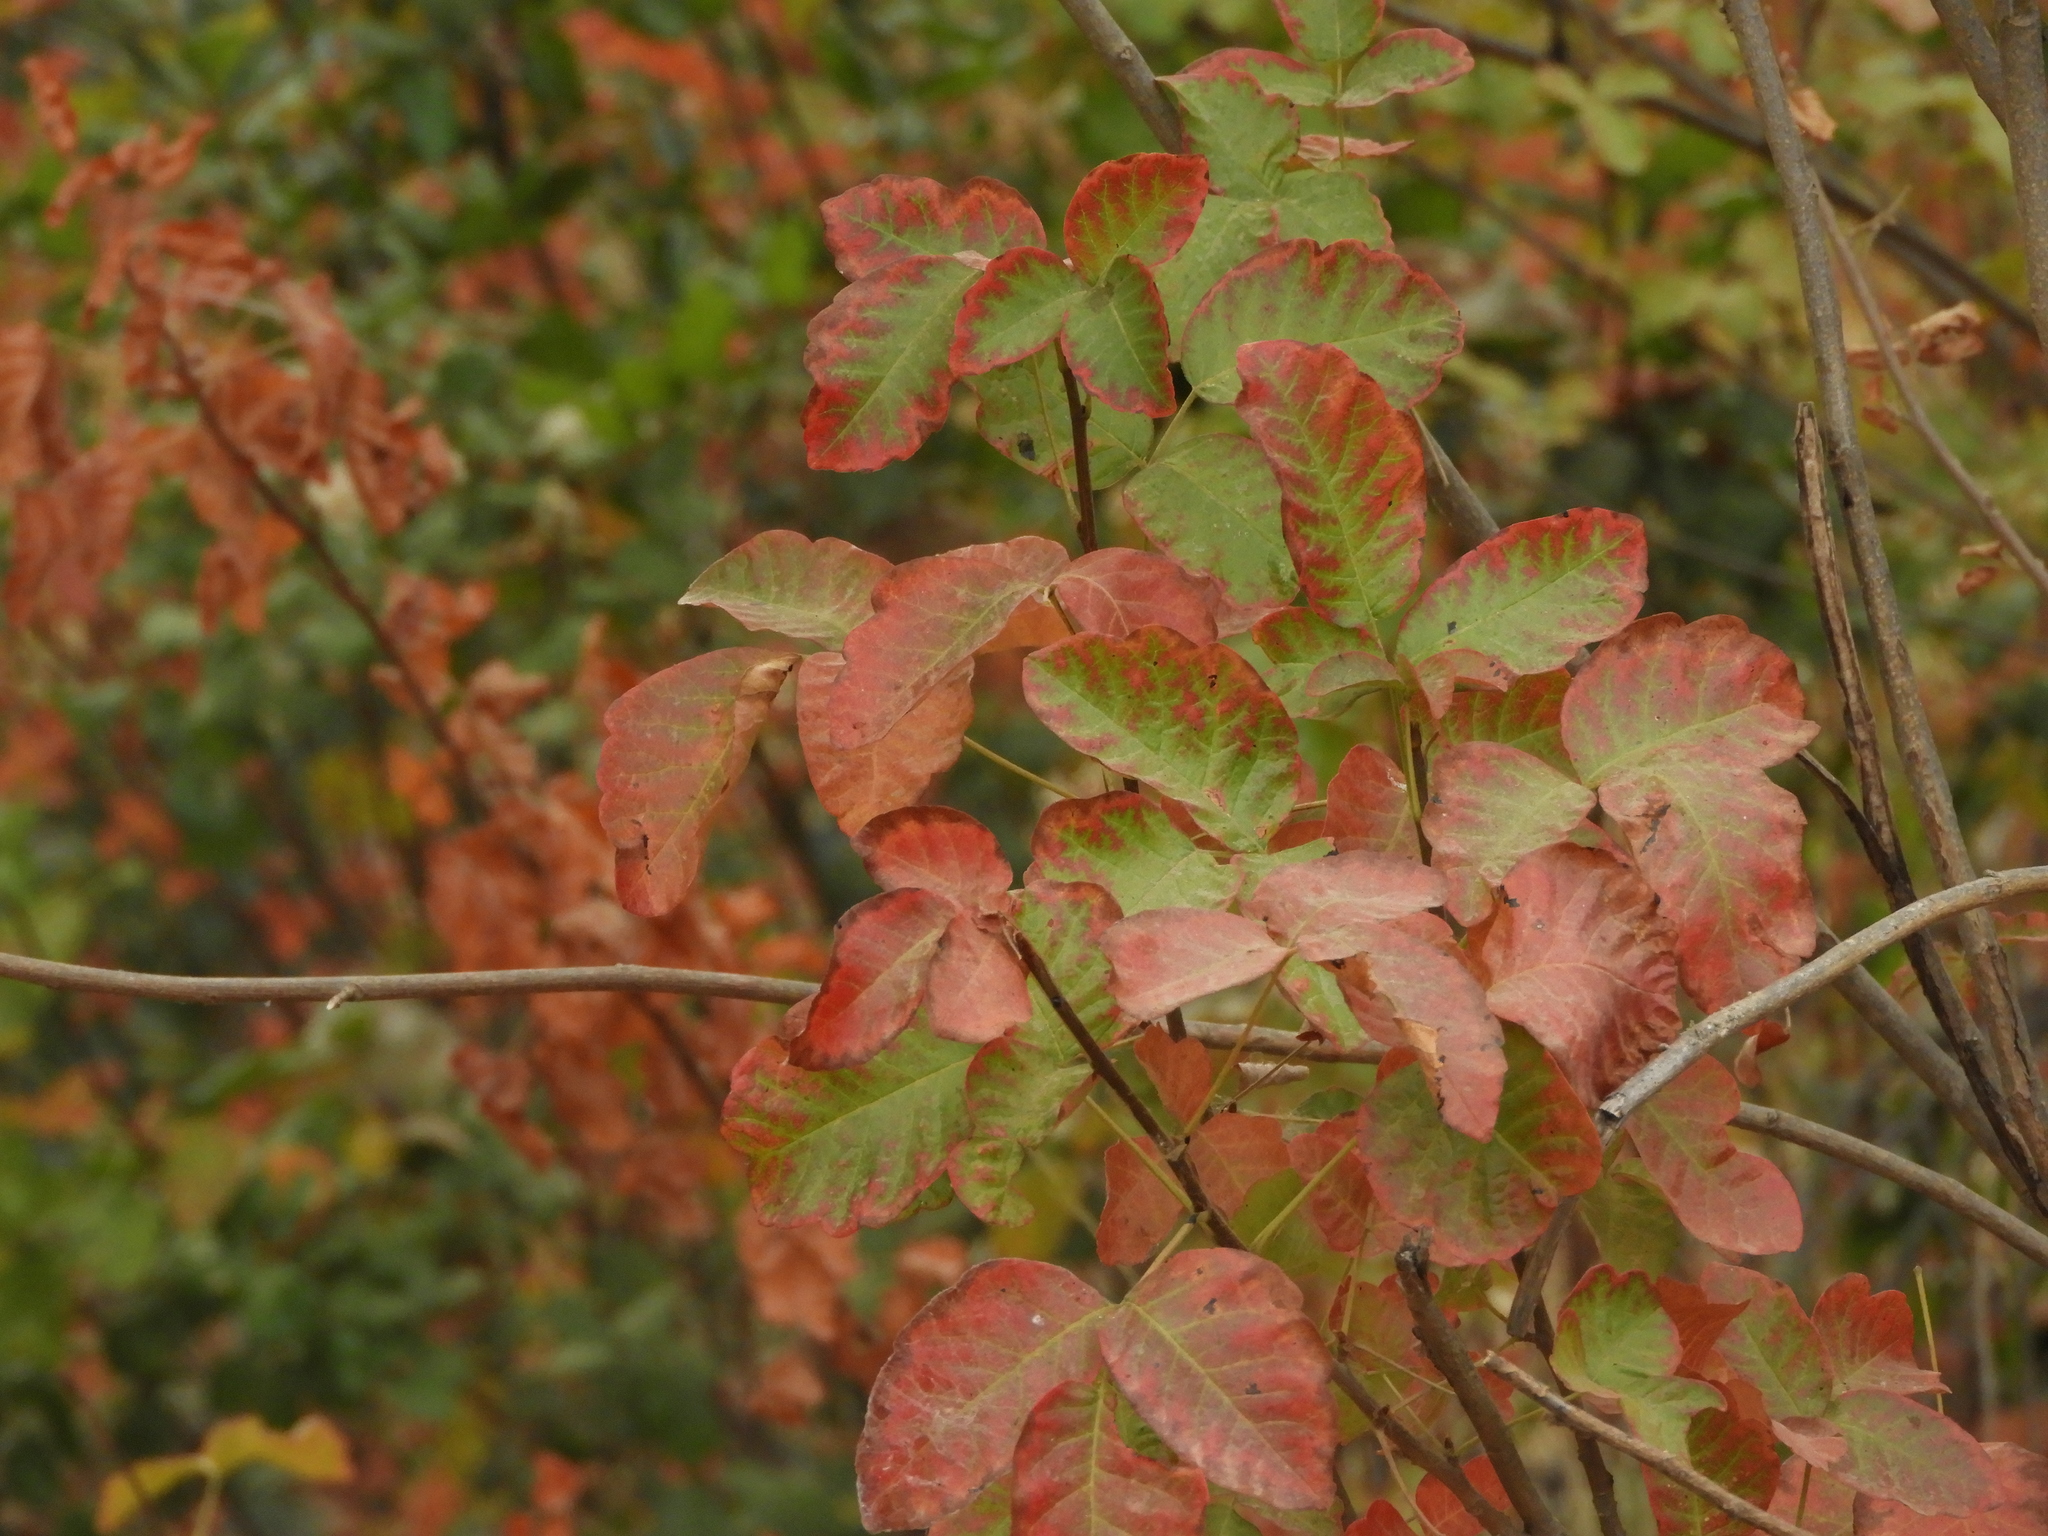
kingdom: Plantae
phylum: Tracheophyta
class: Magnoliopsida
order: Sapindales
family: Anacardiaceae
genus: Toxicodendron
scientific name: Toxicodendron diversilobum
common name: Pacific poison-oak
